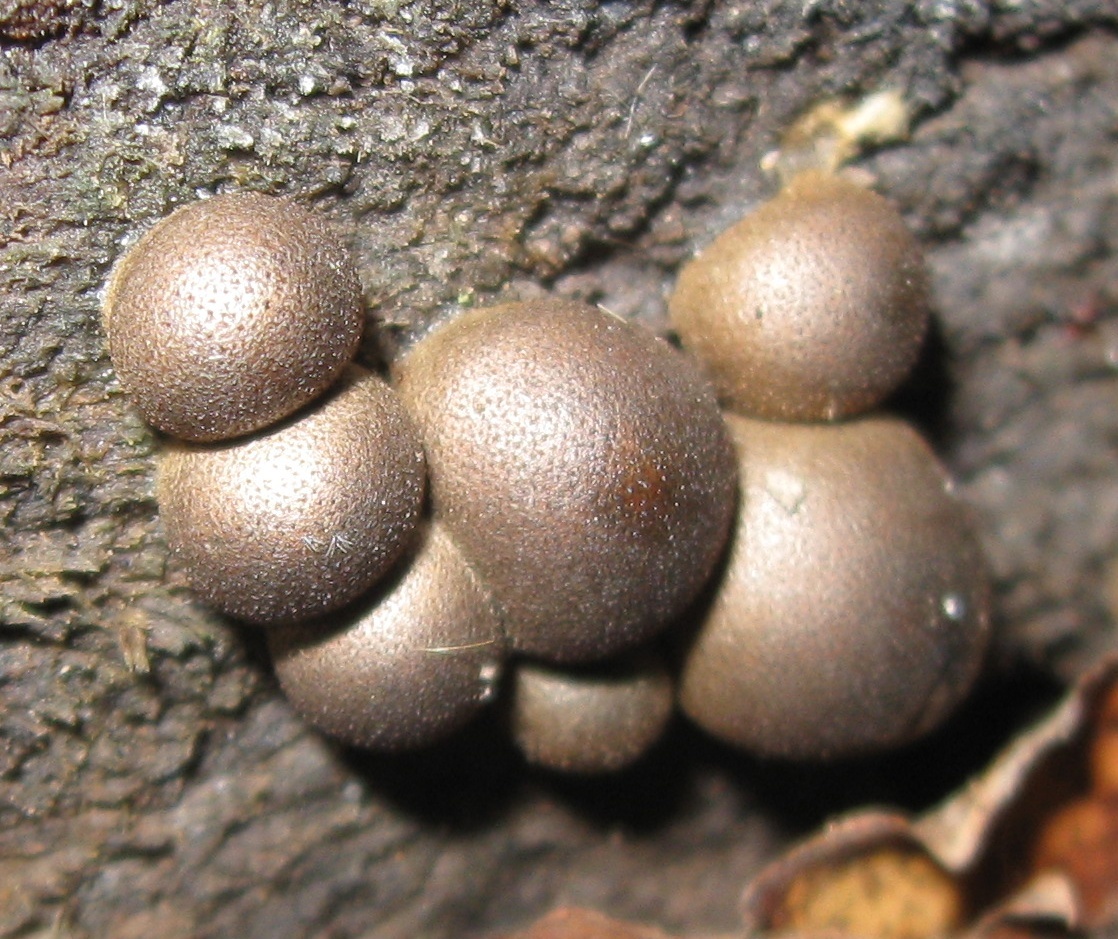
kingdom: Protozoa
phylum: Mycetozoa
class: Myxomycetes
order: Cribrariales
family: Tubiferaceae
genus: Lycogala
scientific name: Lycogala epidendrum
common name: Wolf's milk
